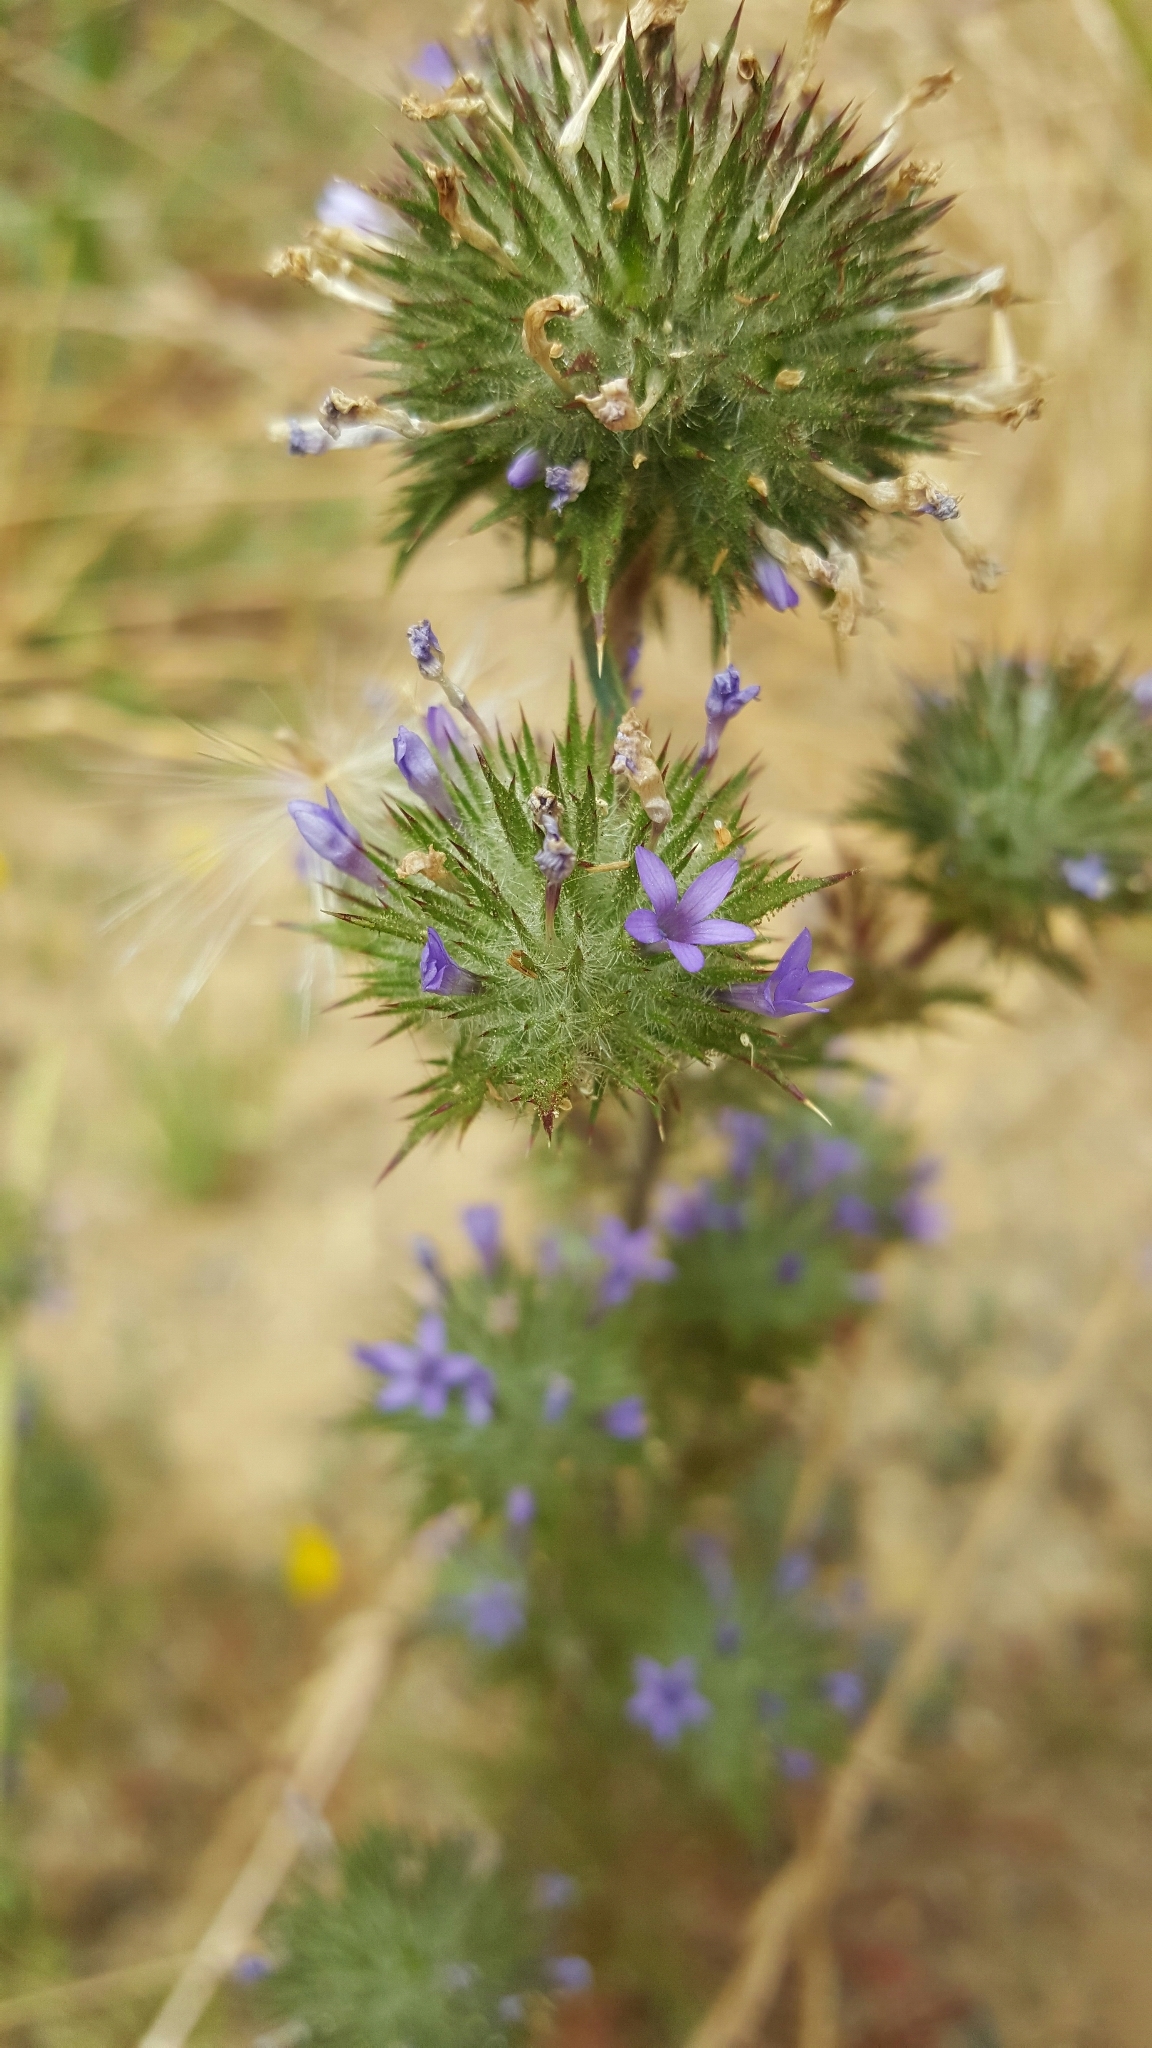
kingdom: Plantae
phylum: Tracheophyta
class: Magnoliopsida
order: Ericales
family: Polemoniaceae
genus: Navarretia
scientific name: Navarretia squarrosa
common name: Skunkweed
